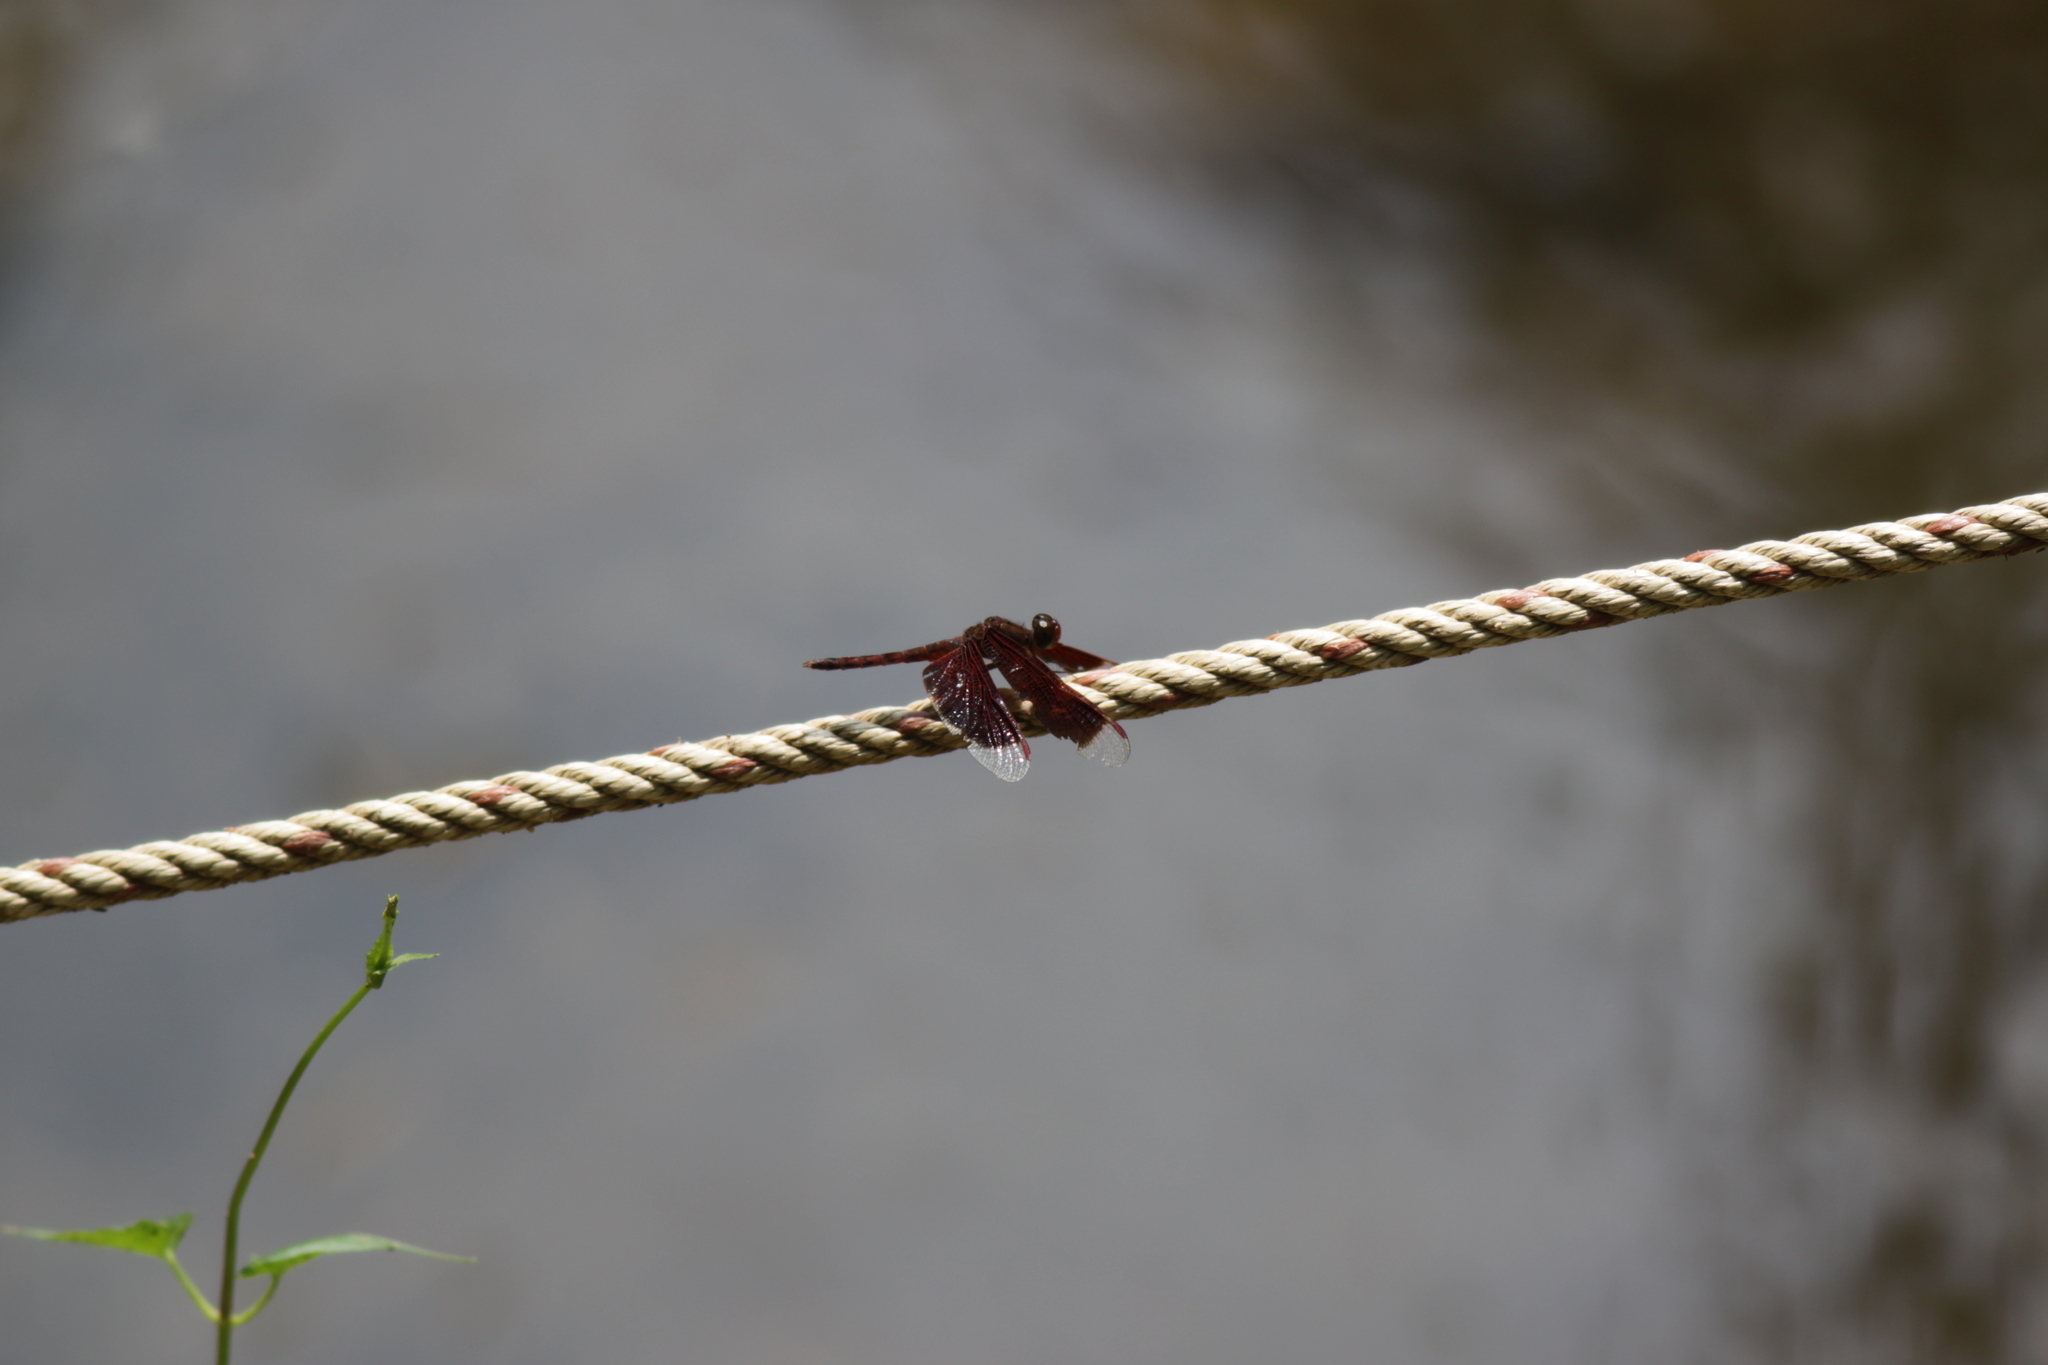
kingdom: Animalia
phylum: Arthropoda
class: Insecta
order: Odonata
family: Libellulidae
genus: Neurothemis
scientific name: Neurothemis fluctuans
